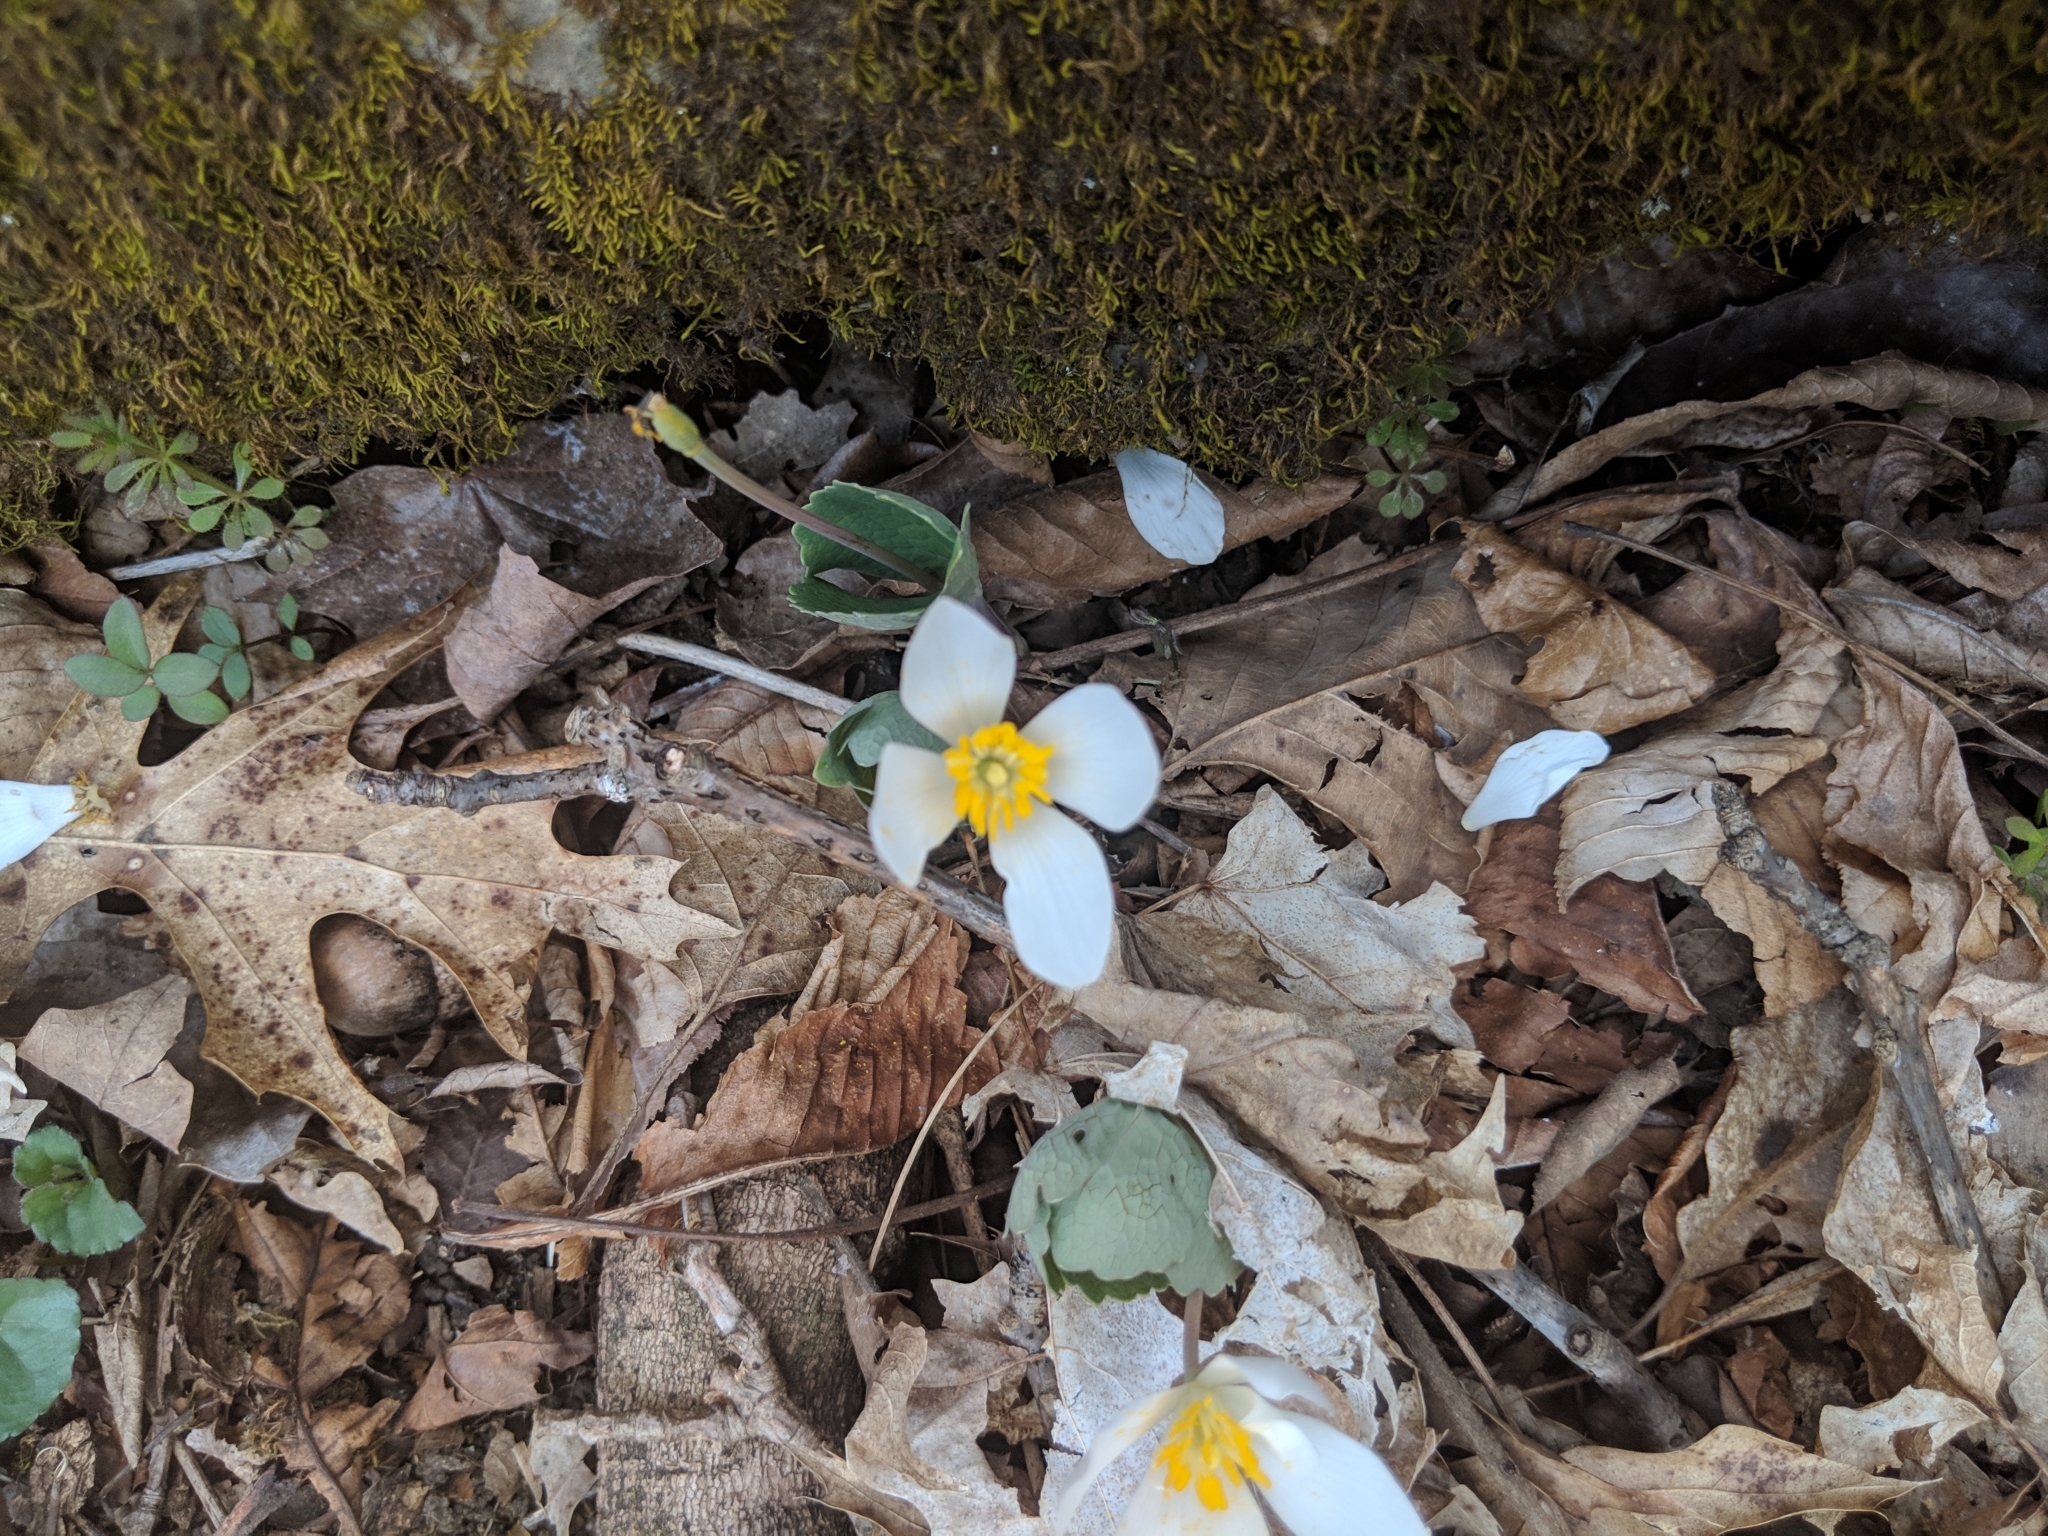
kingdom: Plantae
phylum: Tracheophyta
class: Magnoliopsida
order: Ranunculales
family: Papaveraceae
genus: Sanguinaria
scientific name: Sanguinaria canadensis
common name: Bloodroot
